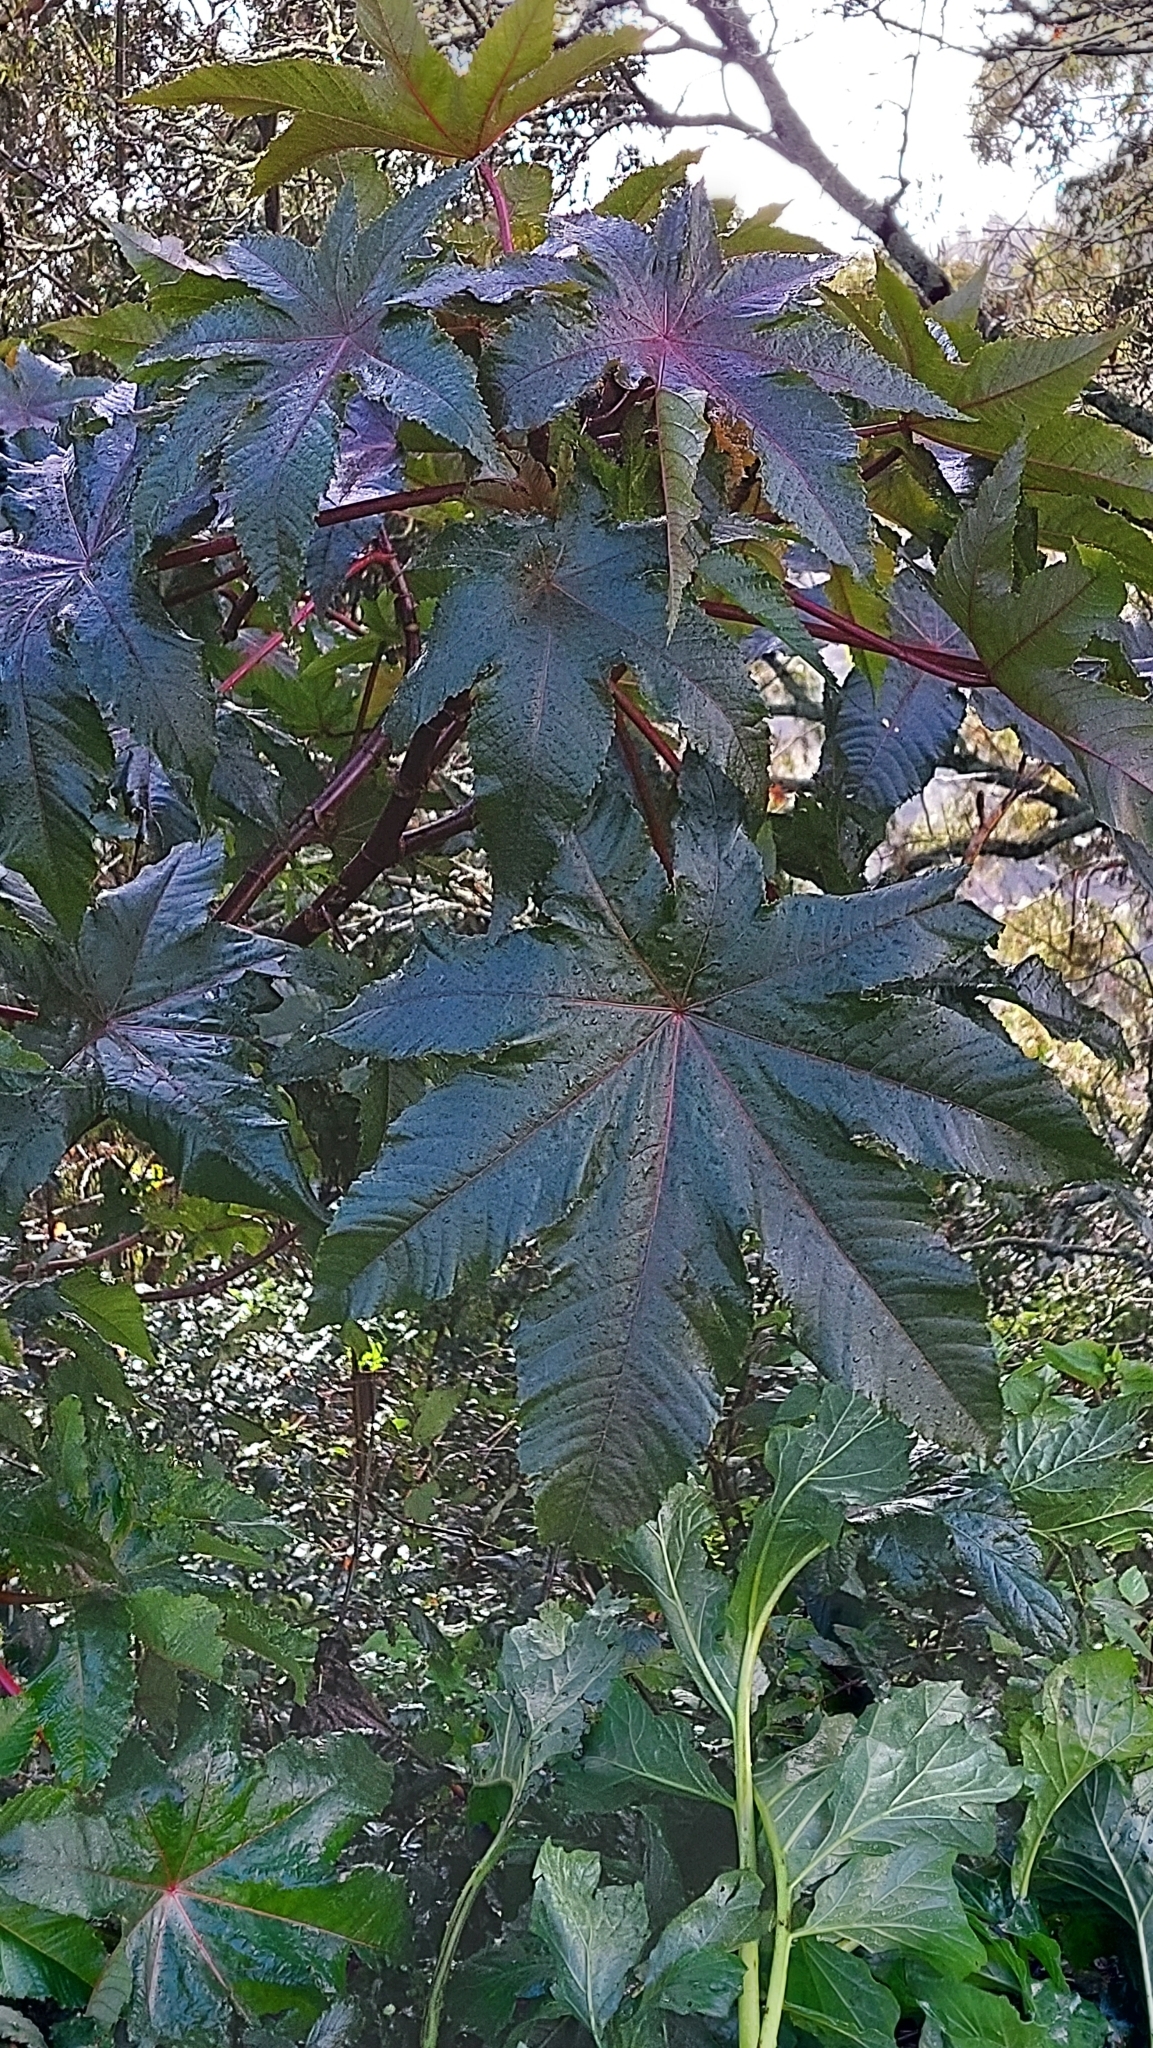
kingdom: Plantae
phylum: Tracheophyta
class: Magnoliopsida
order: Malpighiales
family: Euphorbiaceae
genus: Ricinus
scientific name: Ricinus communis
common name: Castor-oil-plant
